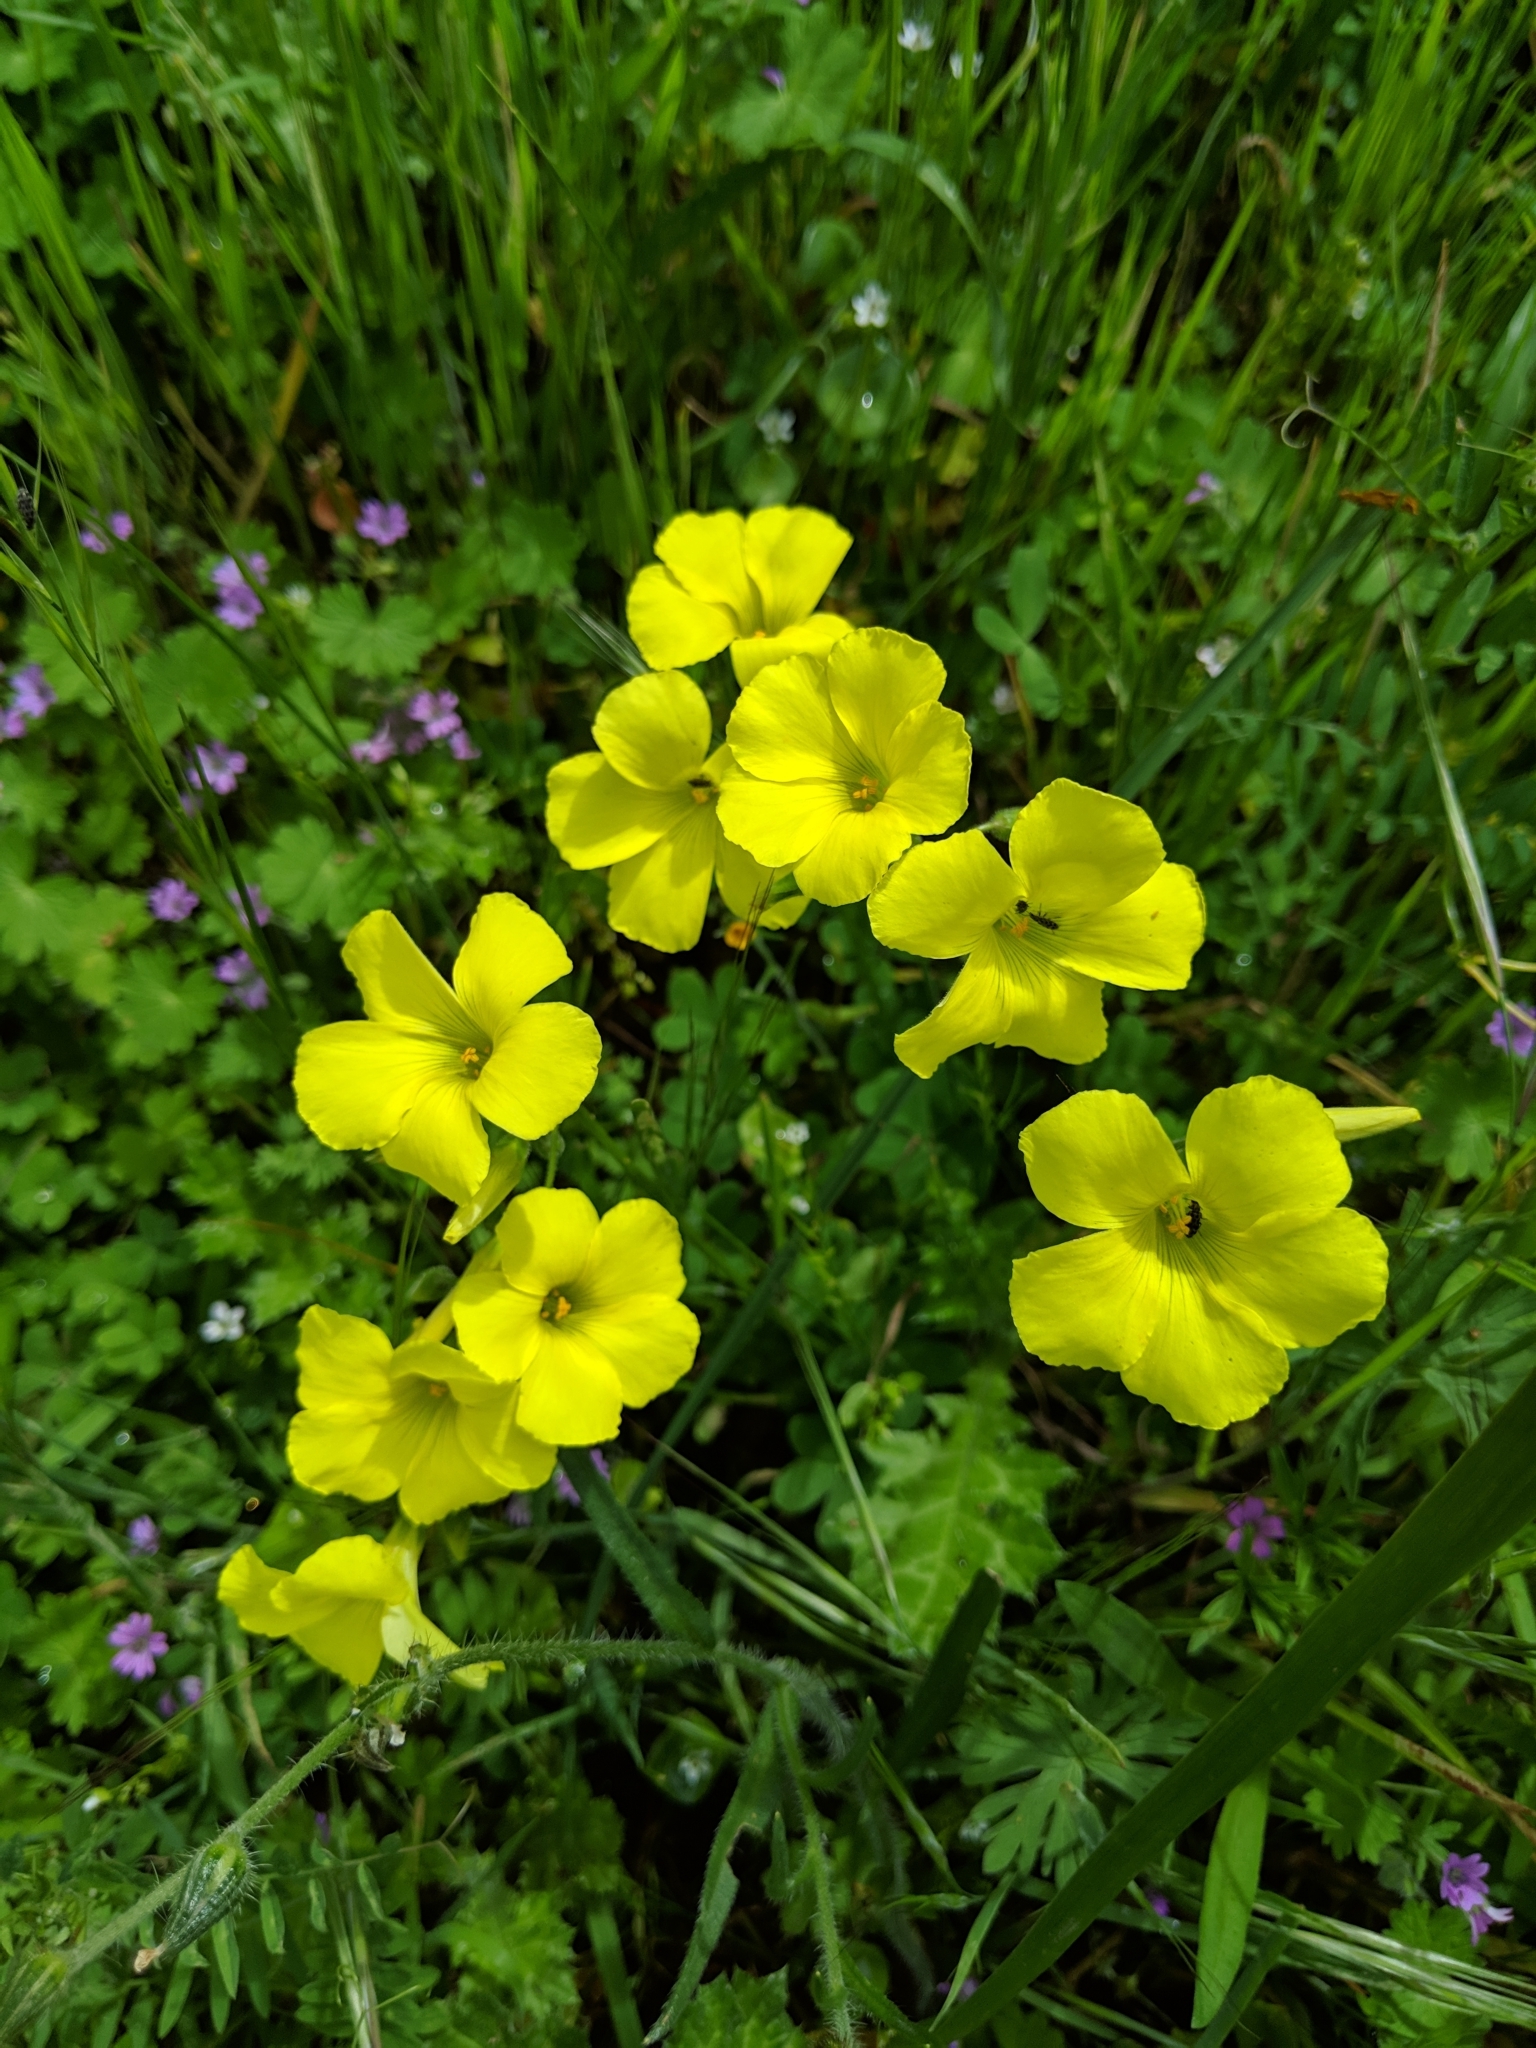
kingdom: Plantae
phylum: Tracheophyta
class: Magnoliopsida
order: Oxalidales
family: Oxalidaceae
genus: Oxalis
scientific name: Oxalis pes-caprae
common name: Bermuda-buttercup
